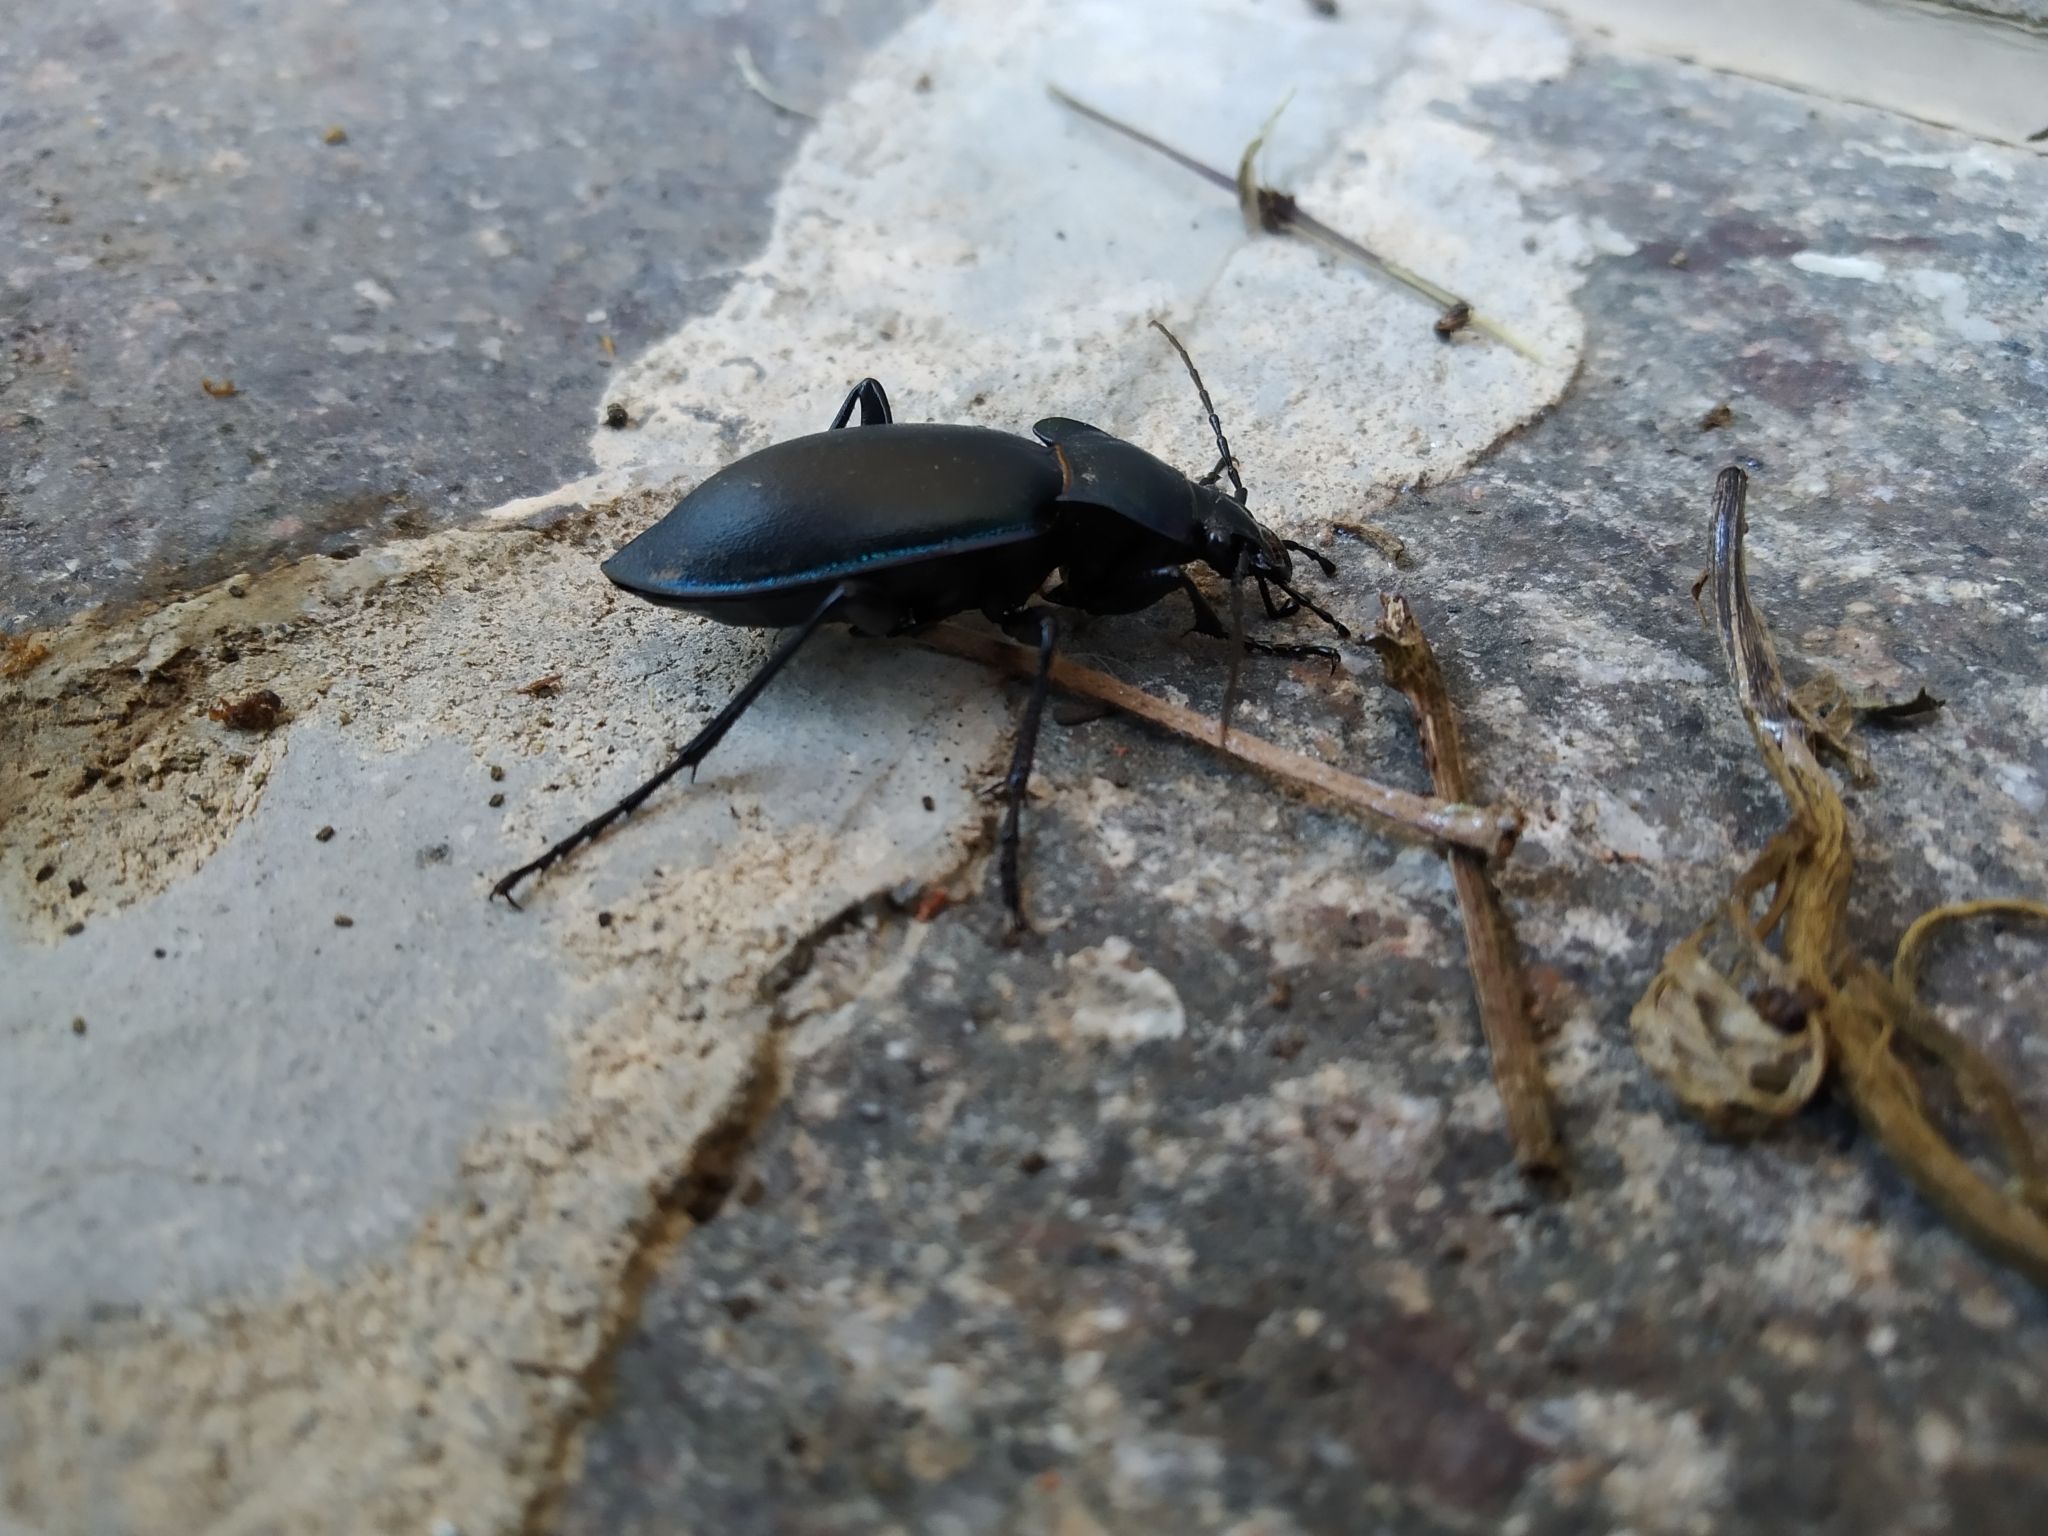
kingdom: Animalia
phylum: Arthropoda
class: Insecta
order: Coleoptera
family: Carabidae
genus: Carabus
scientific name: Carabus germarii
